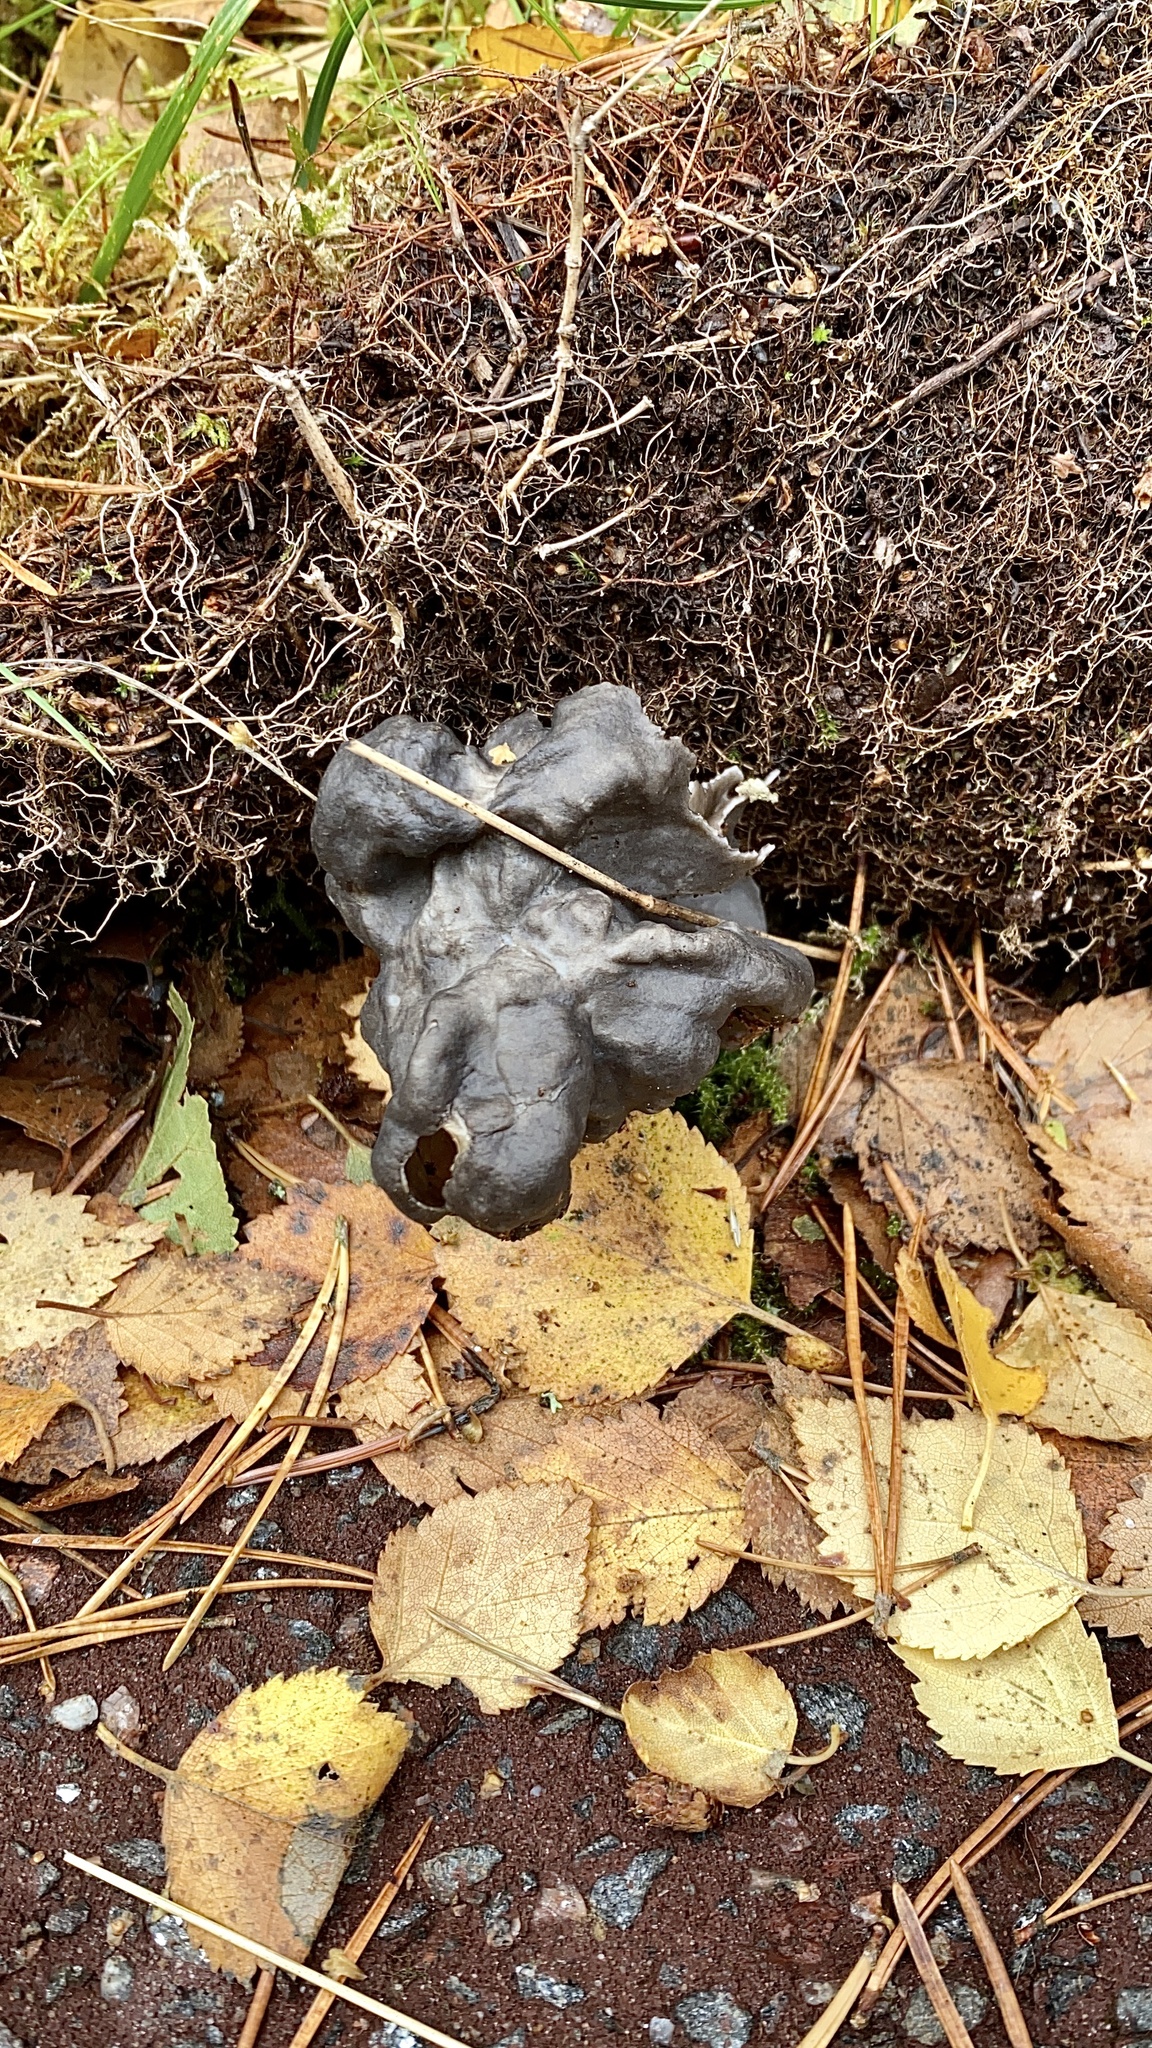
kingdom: Fungi
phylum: Ascomycota
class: Pezizomycetes
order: Pezizales
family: Helvellaceae
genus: Helvella
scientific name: Helvella lacunosa
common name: Elfin saddle
